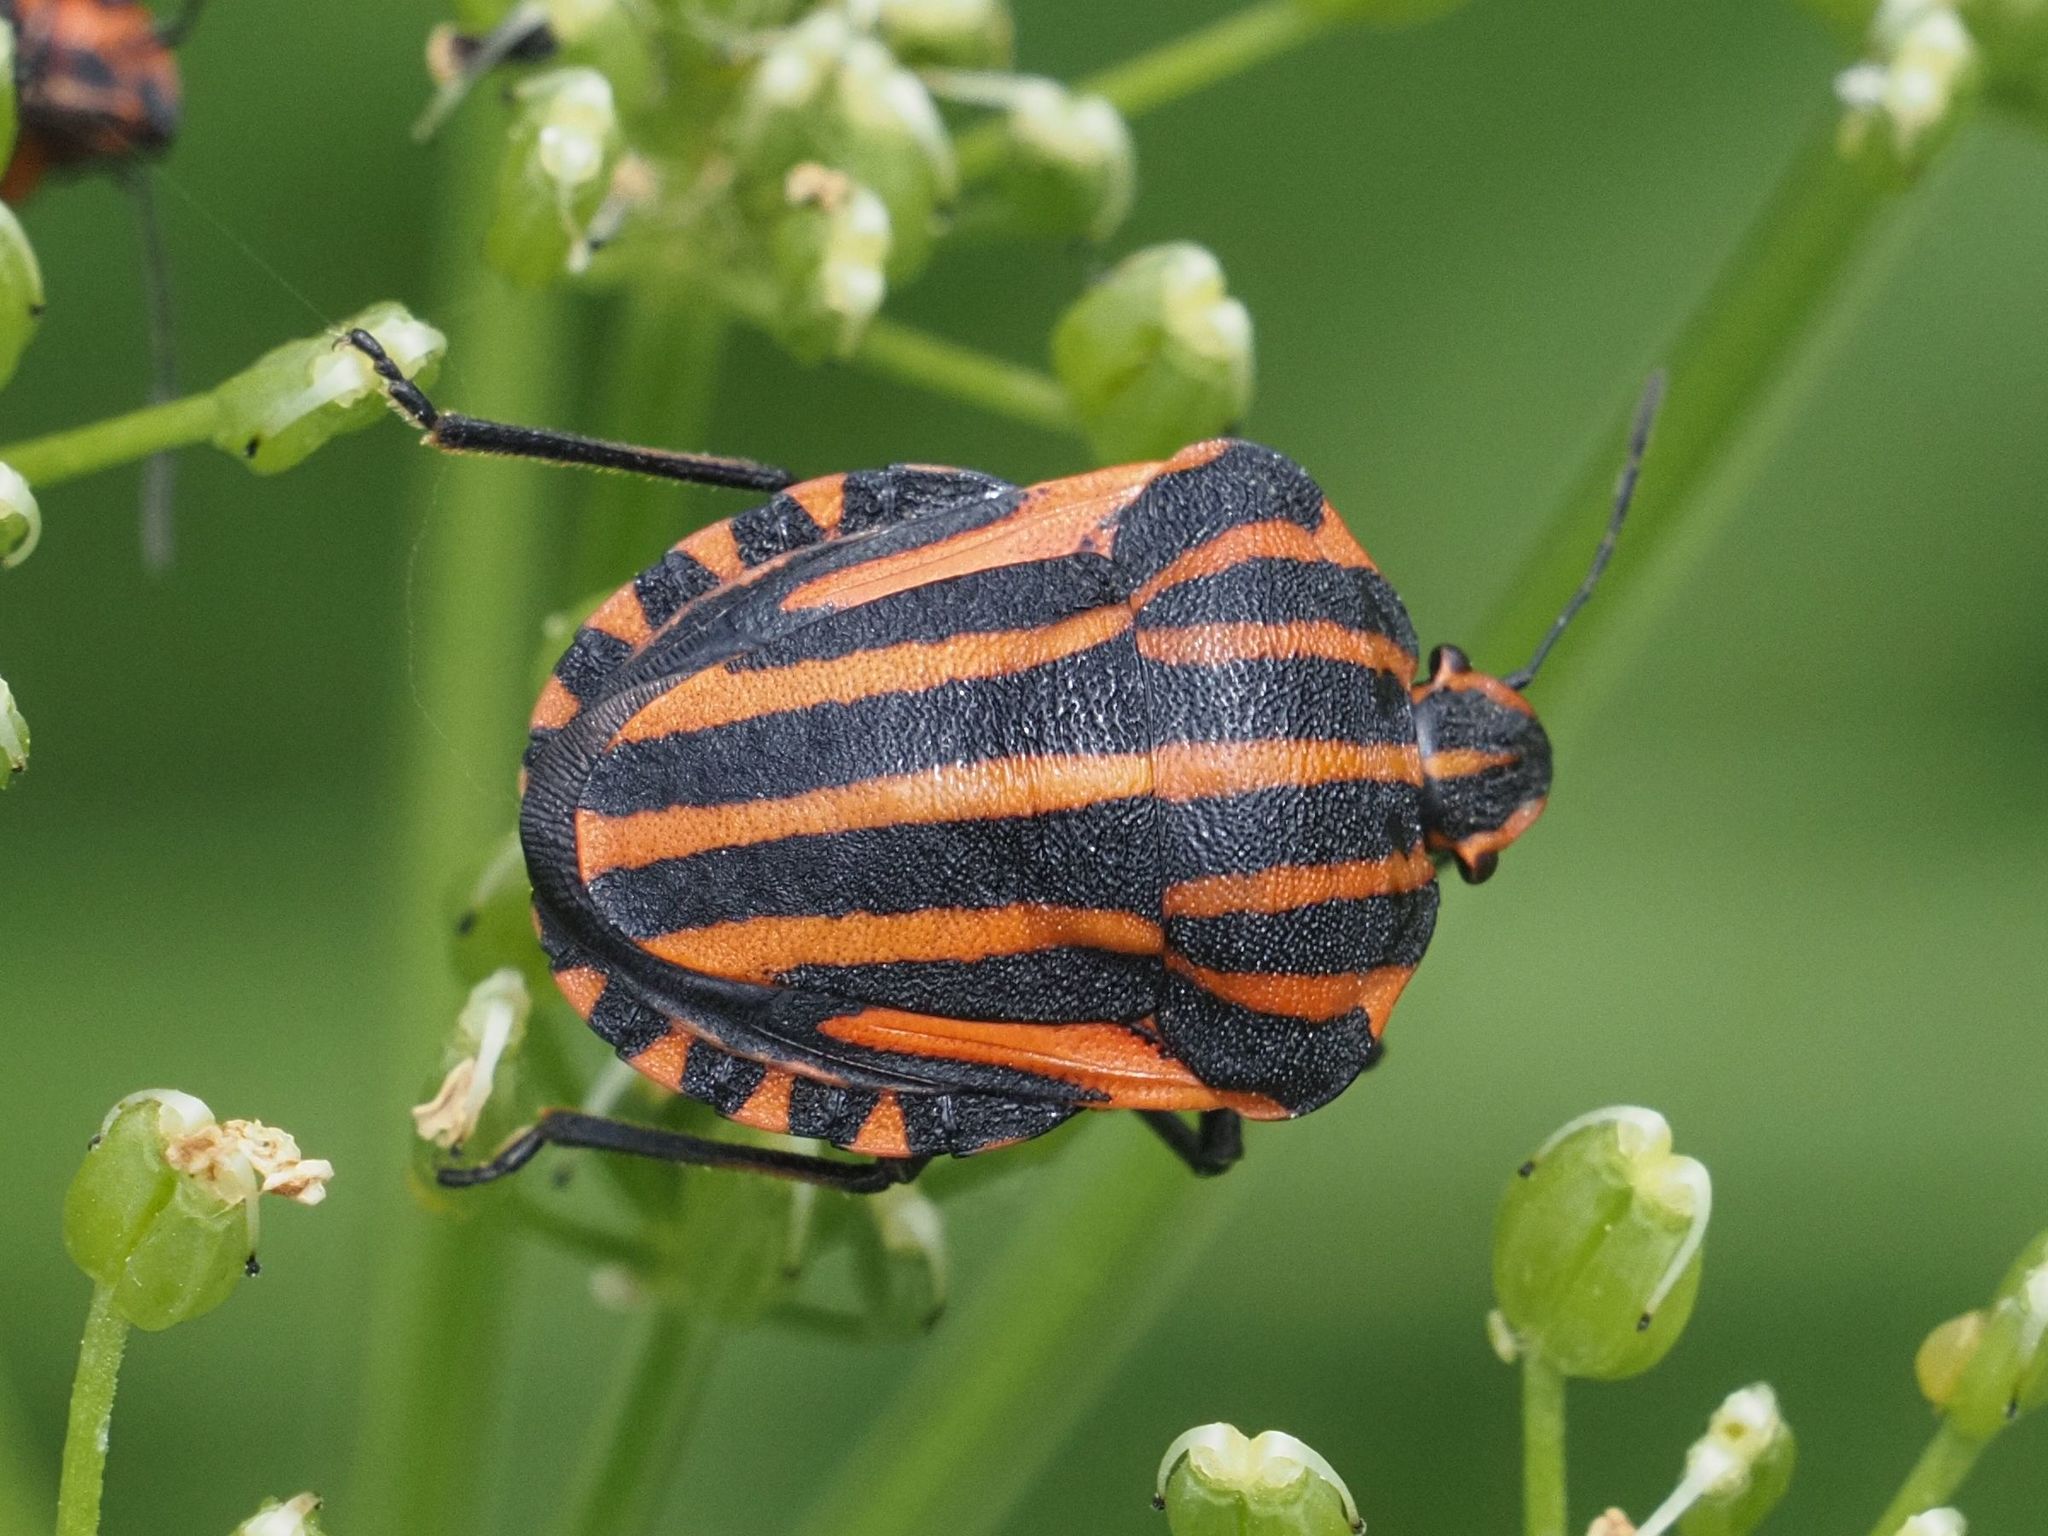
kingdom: Animalia
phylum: Arthropoda
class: Insecta
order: Hemiptera
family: Pentatomidae
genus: Graphosoma
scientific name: Graphosoma italicum
